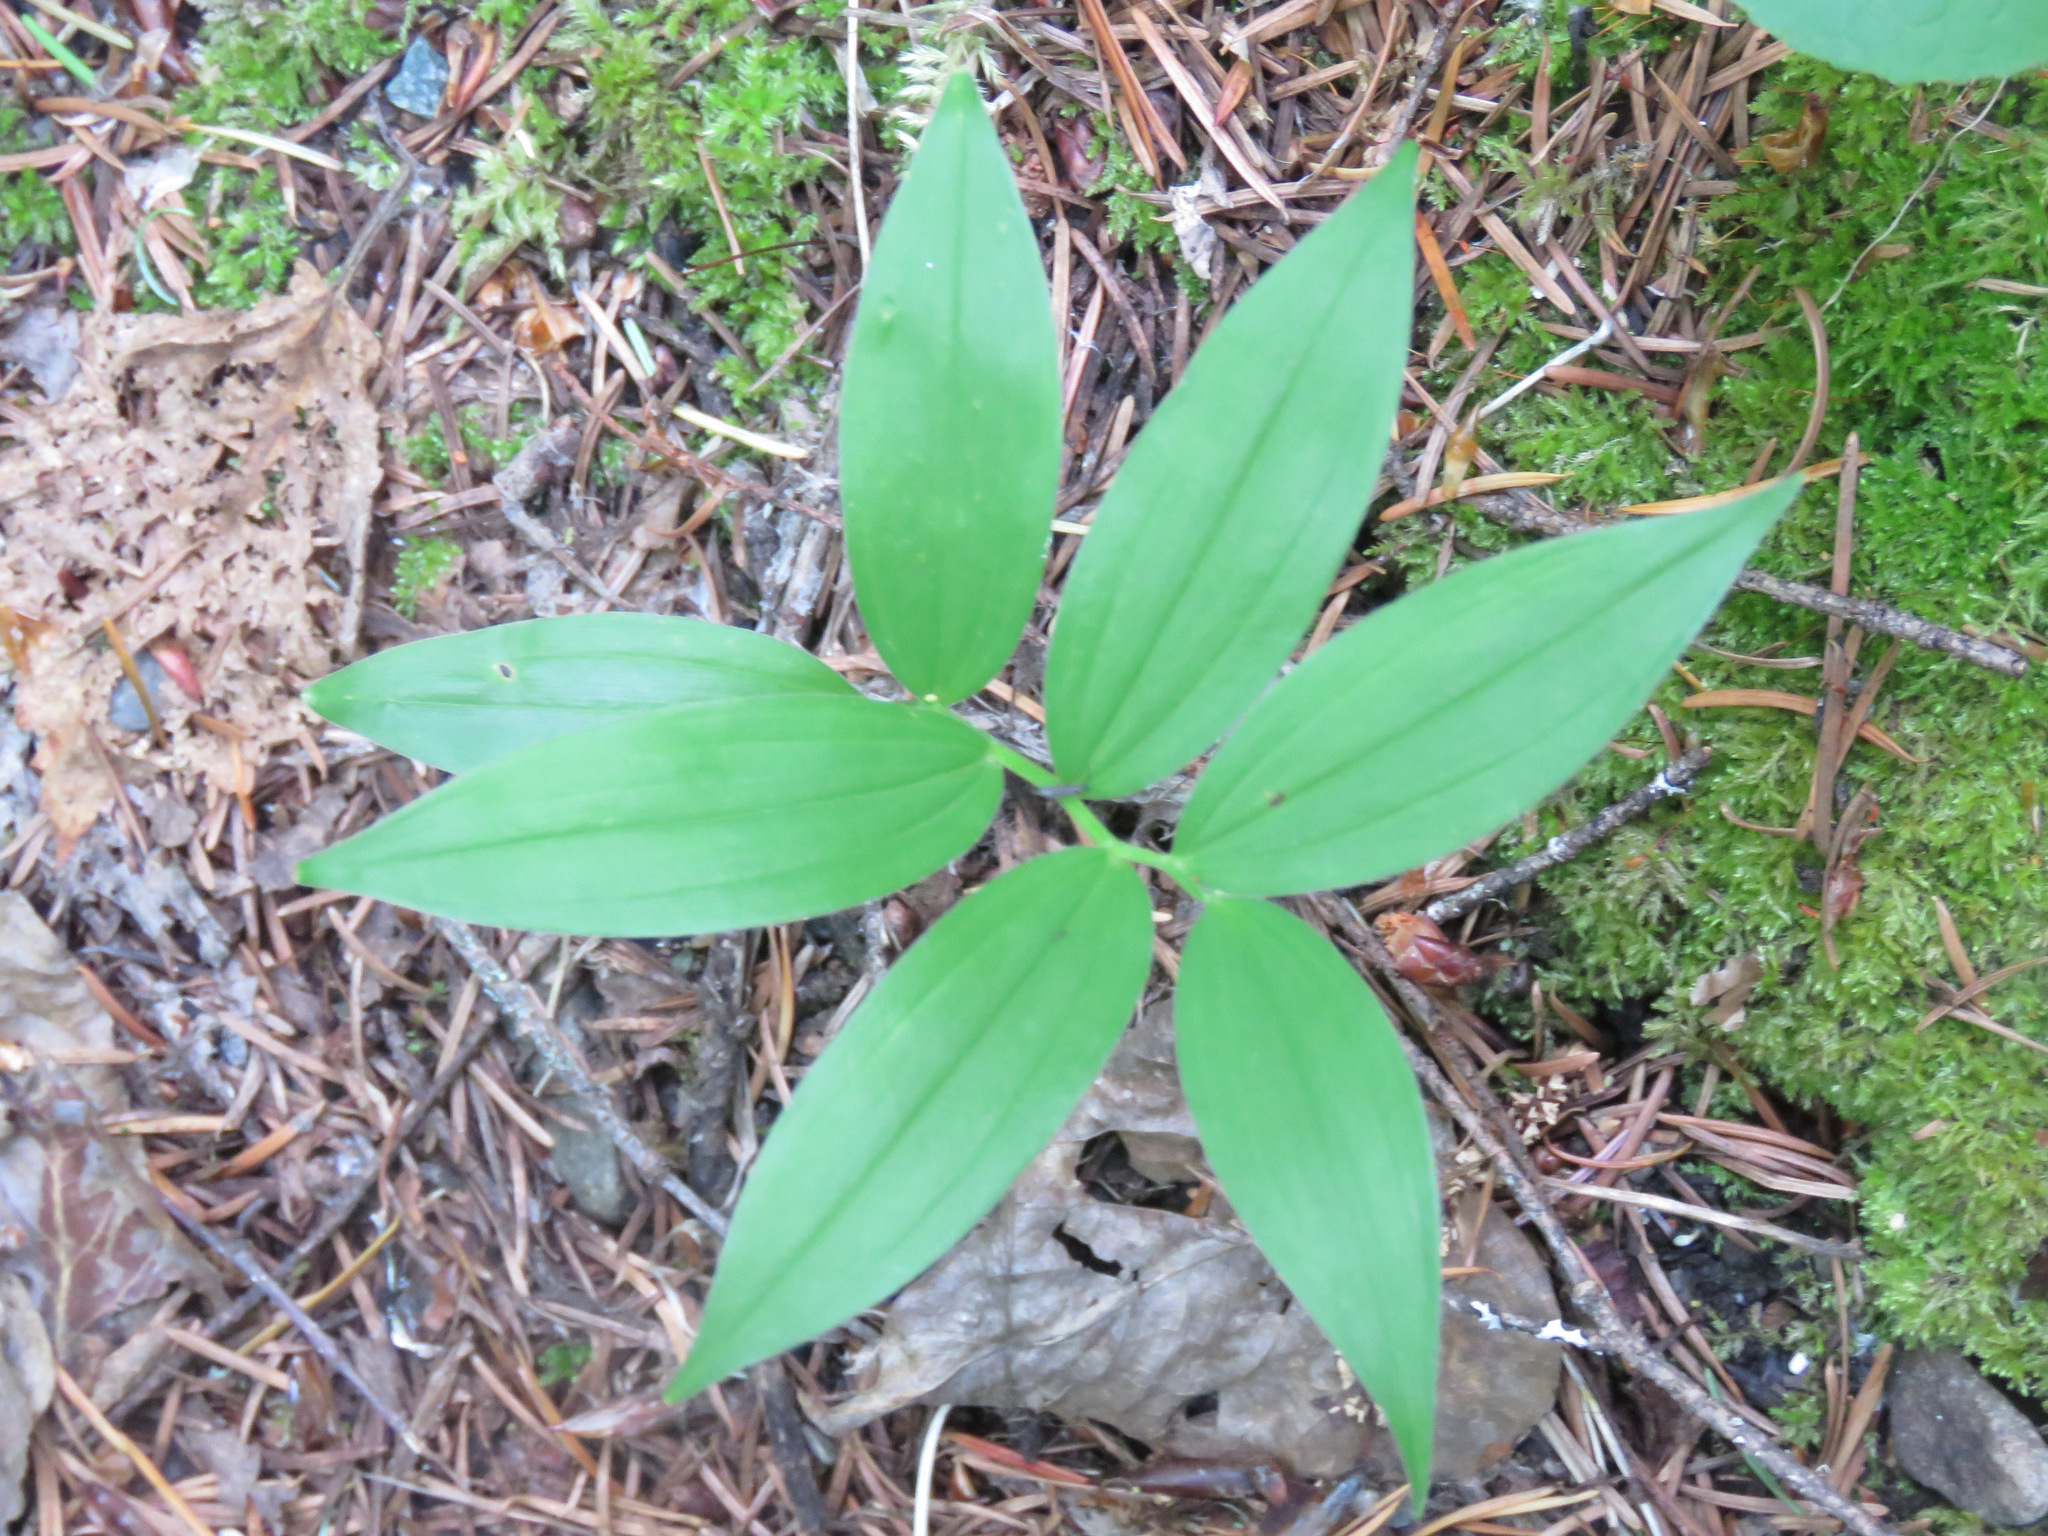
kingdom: Plantae
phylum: Tracheophyta
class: Liliopsida
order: Asparagales
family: Asparagaceae
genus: Maianthemum
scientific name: Maianthemum stellatum
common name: Little false solomon's seal
